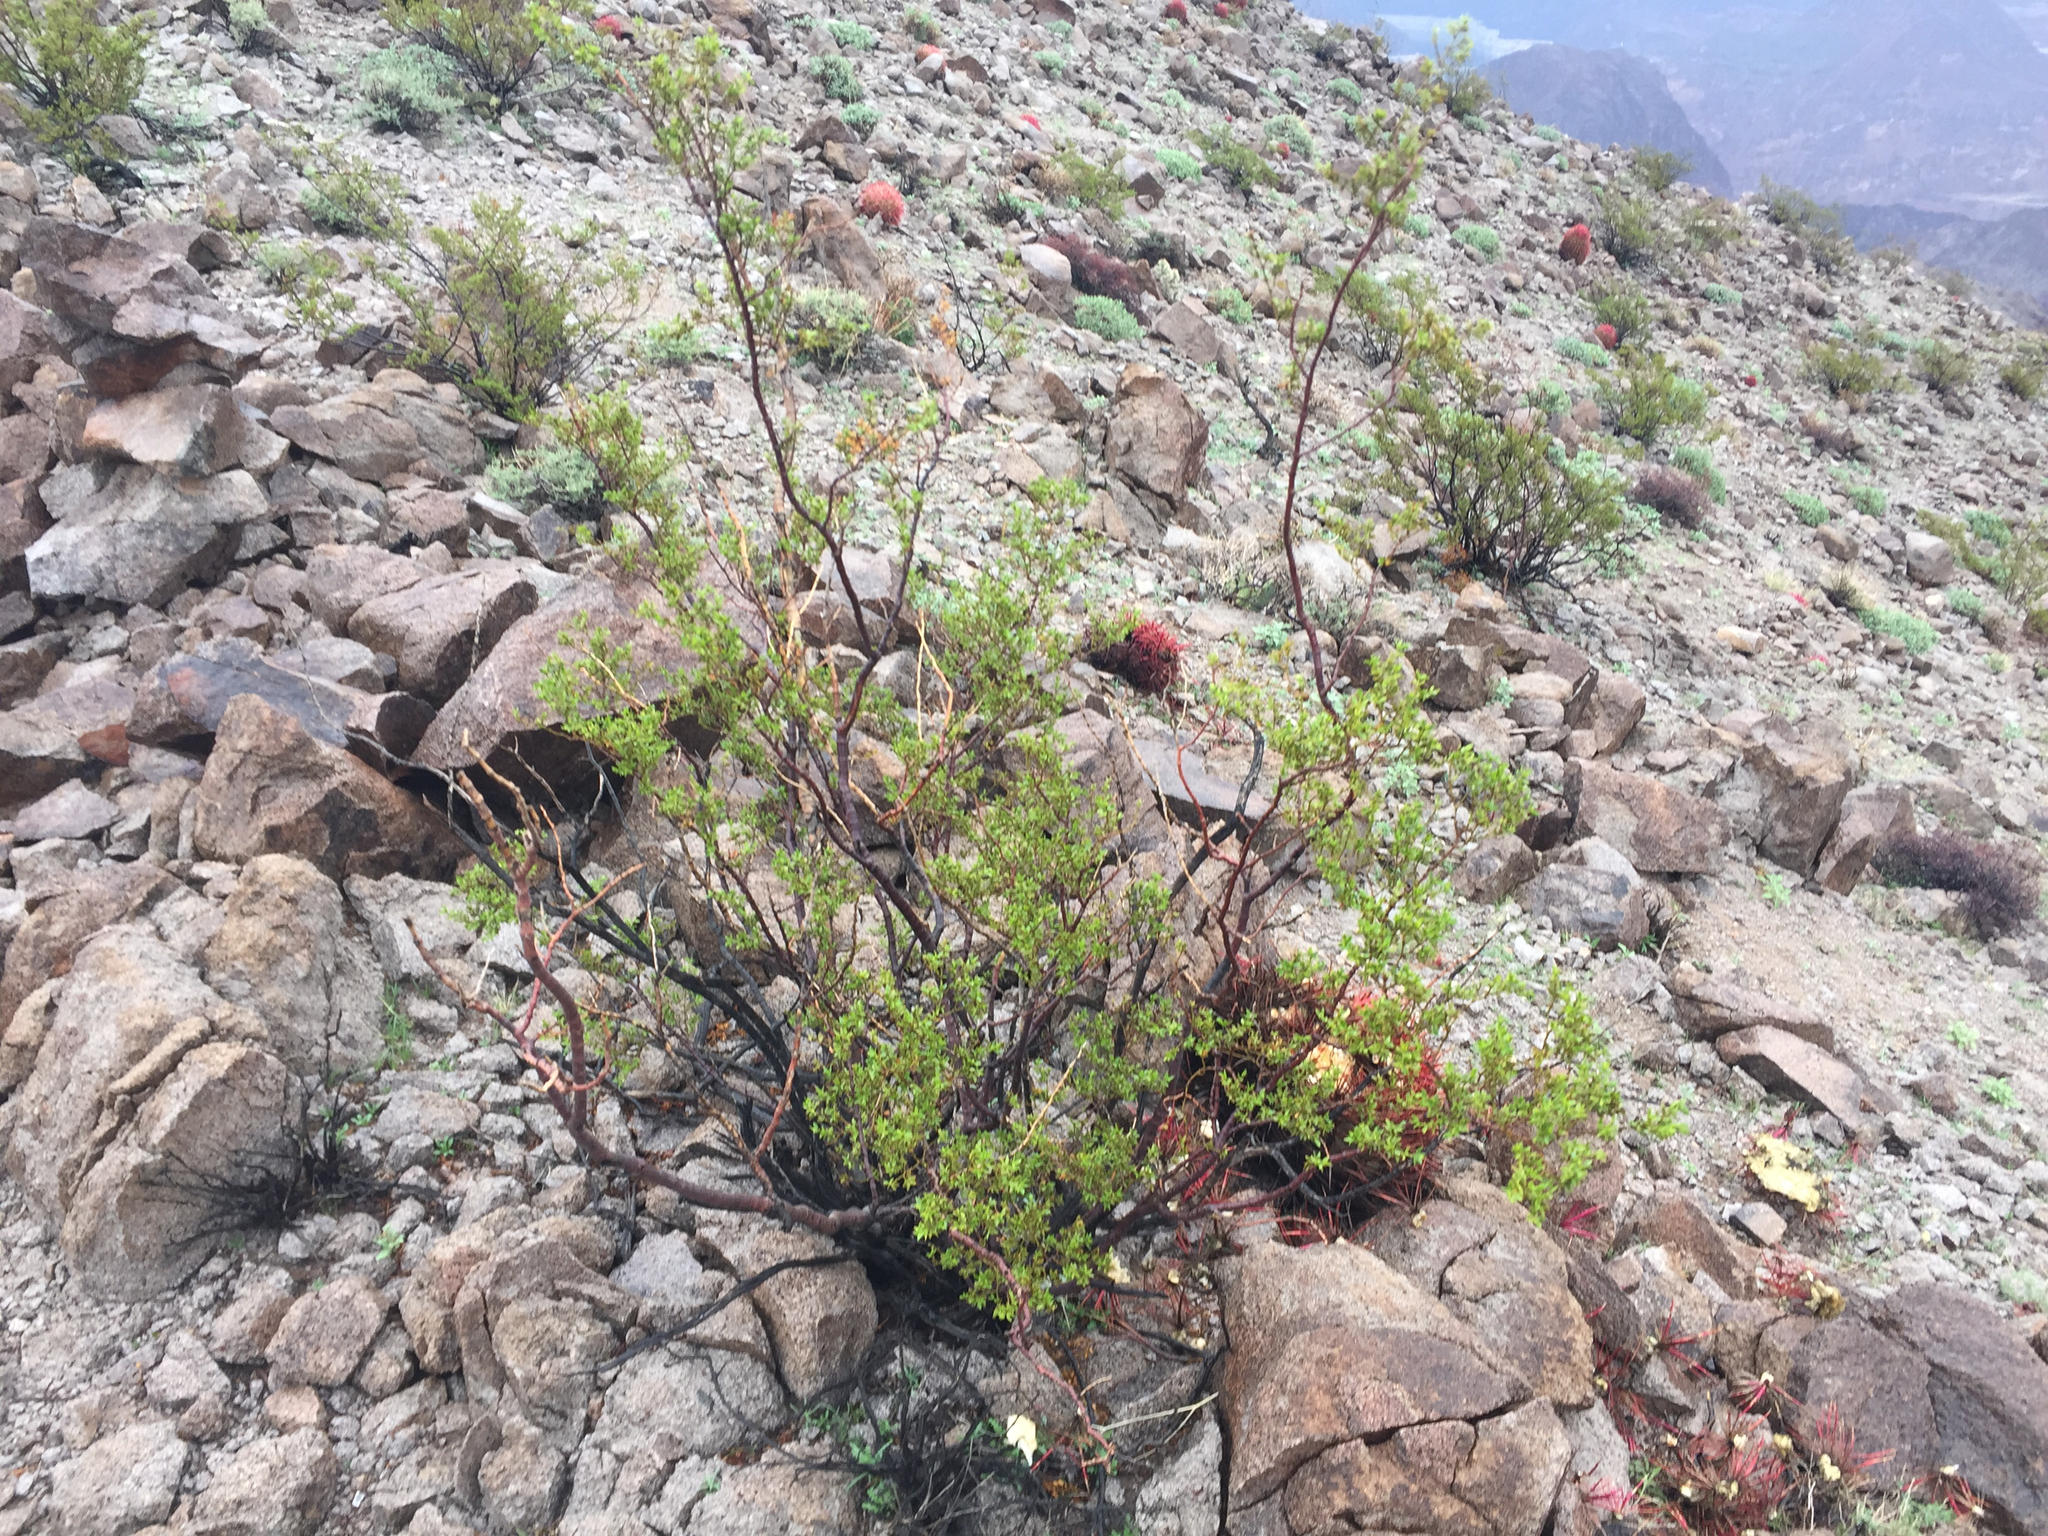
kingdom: Plantae
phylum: Tracheophyta
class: Magnoliopsida
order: Zygophyllales
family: Zygophyllaceae
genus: Larrea
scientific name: Larrea tridentata
